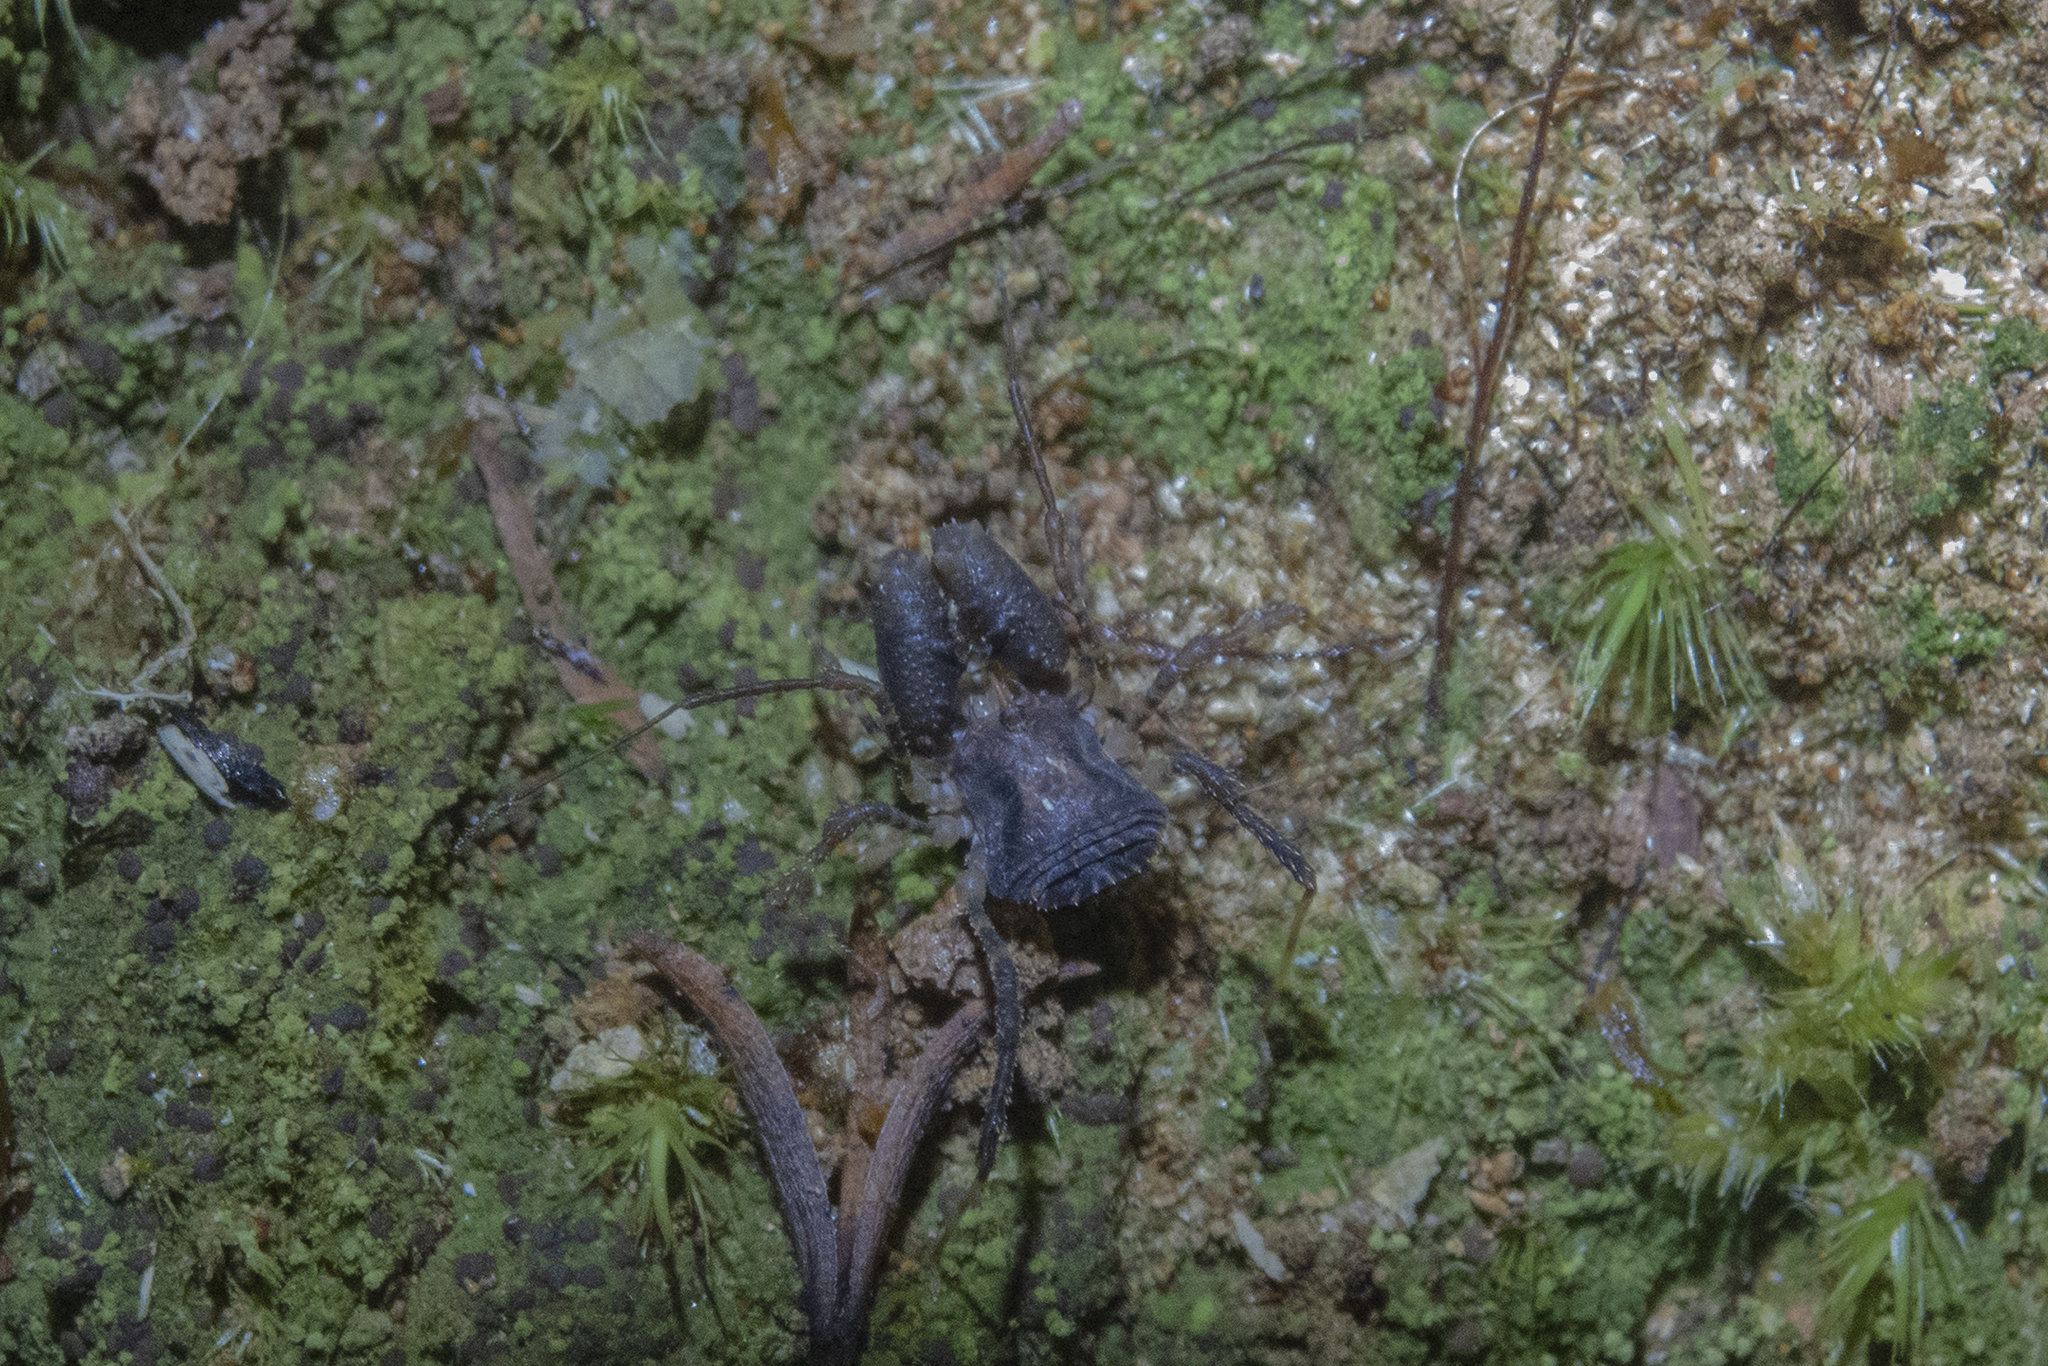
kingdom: Animalia
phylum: Arthropoda
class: Arachnida
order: Opiliones
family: Triaenonychidae
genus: Karamea
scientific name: Karamea tricerata
